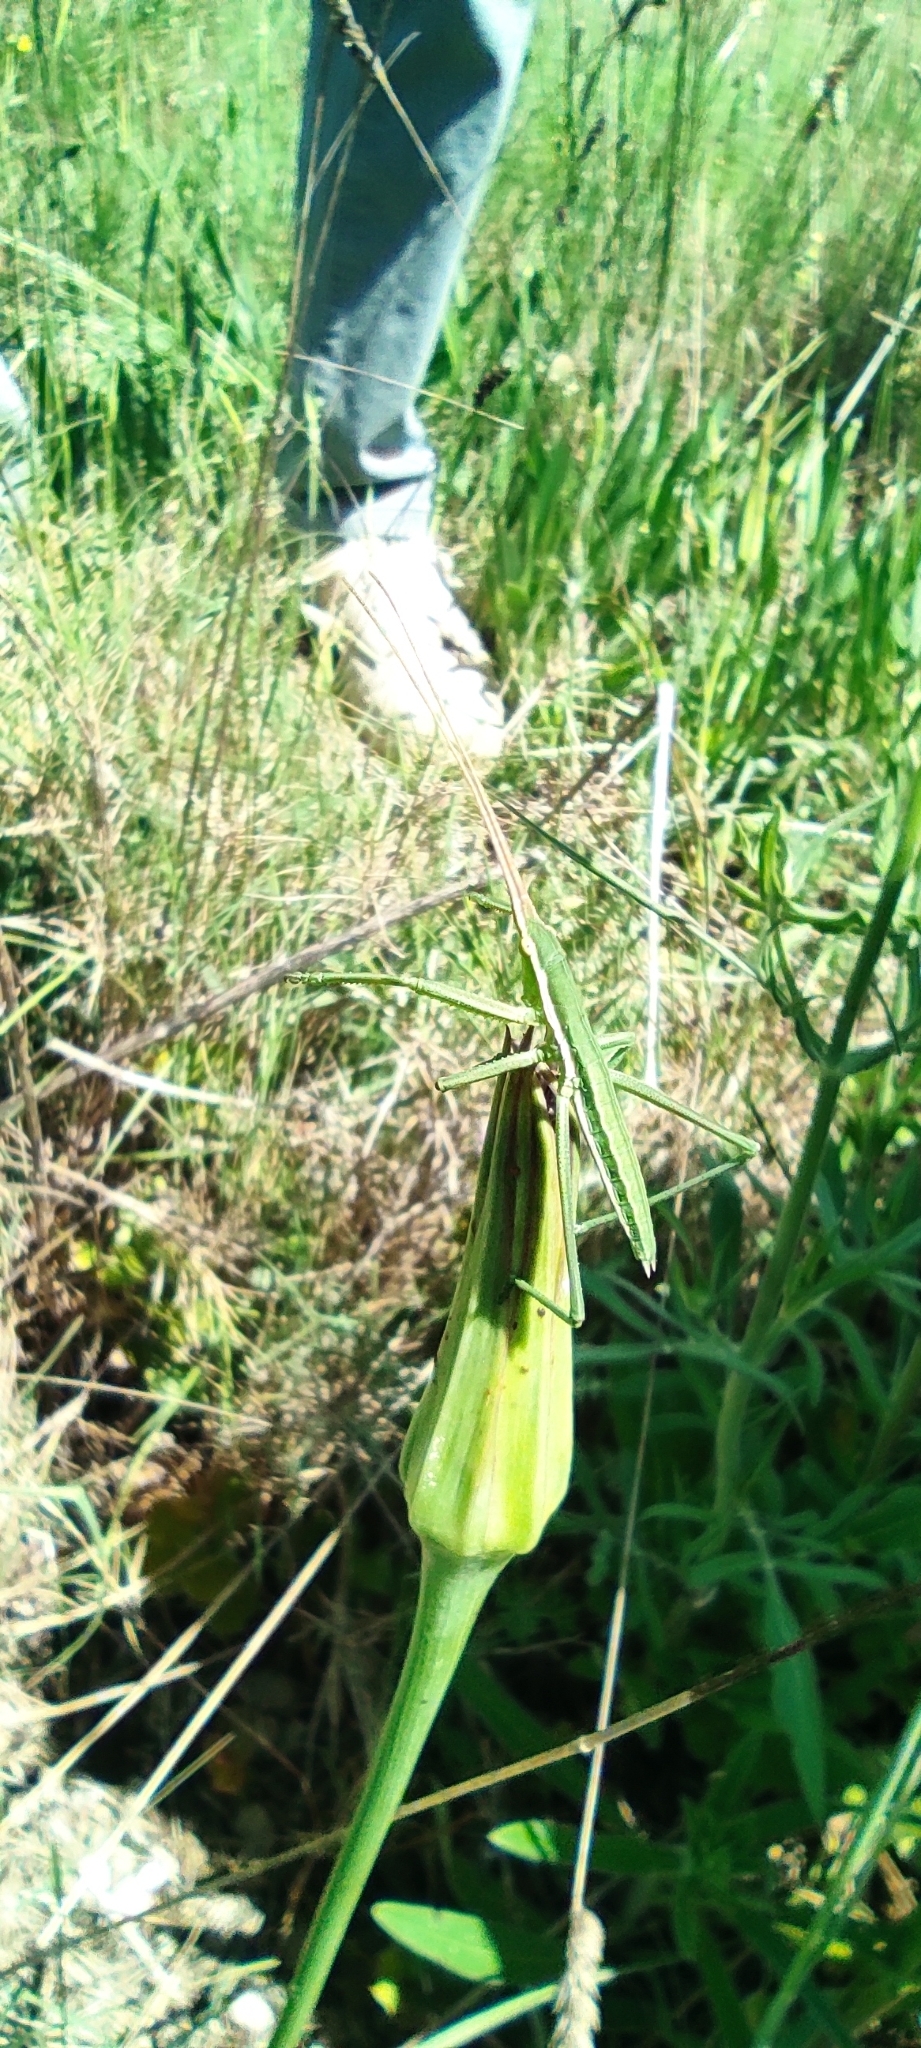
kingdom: Animalia
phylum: Arthropoda
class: Insecta
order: Orthoptera
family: Tettigoniidae
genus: Saga
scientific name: Saga pedo
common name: Common predatory bush-cricket
